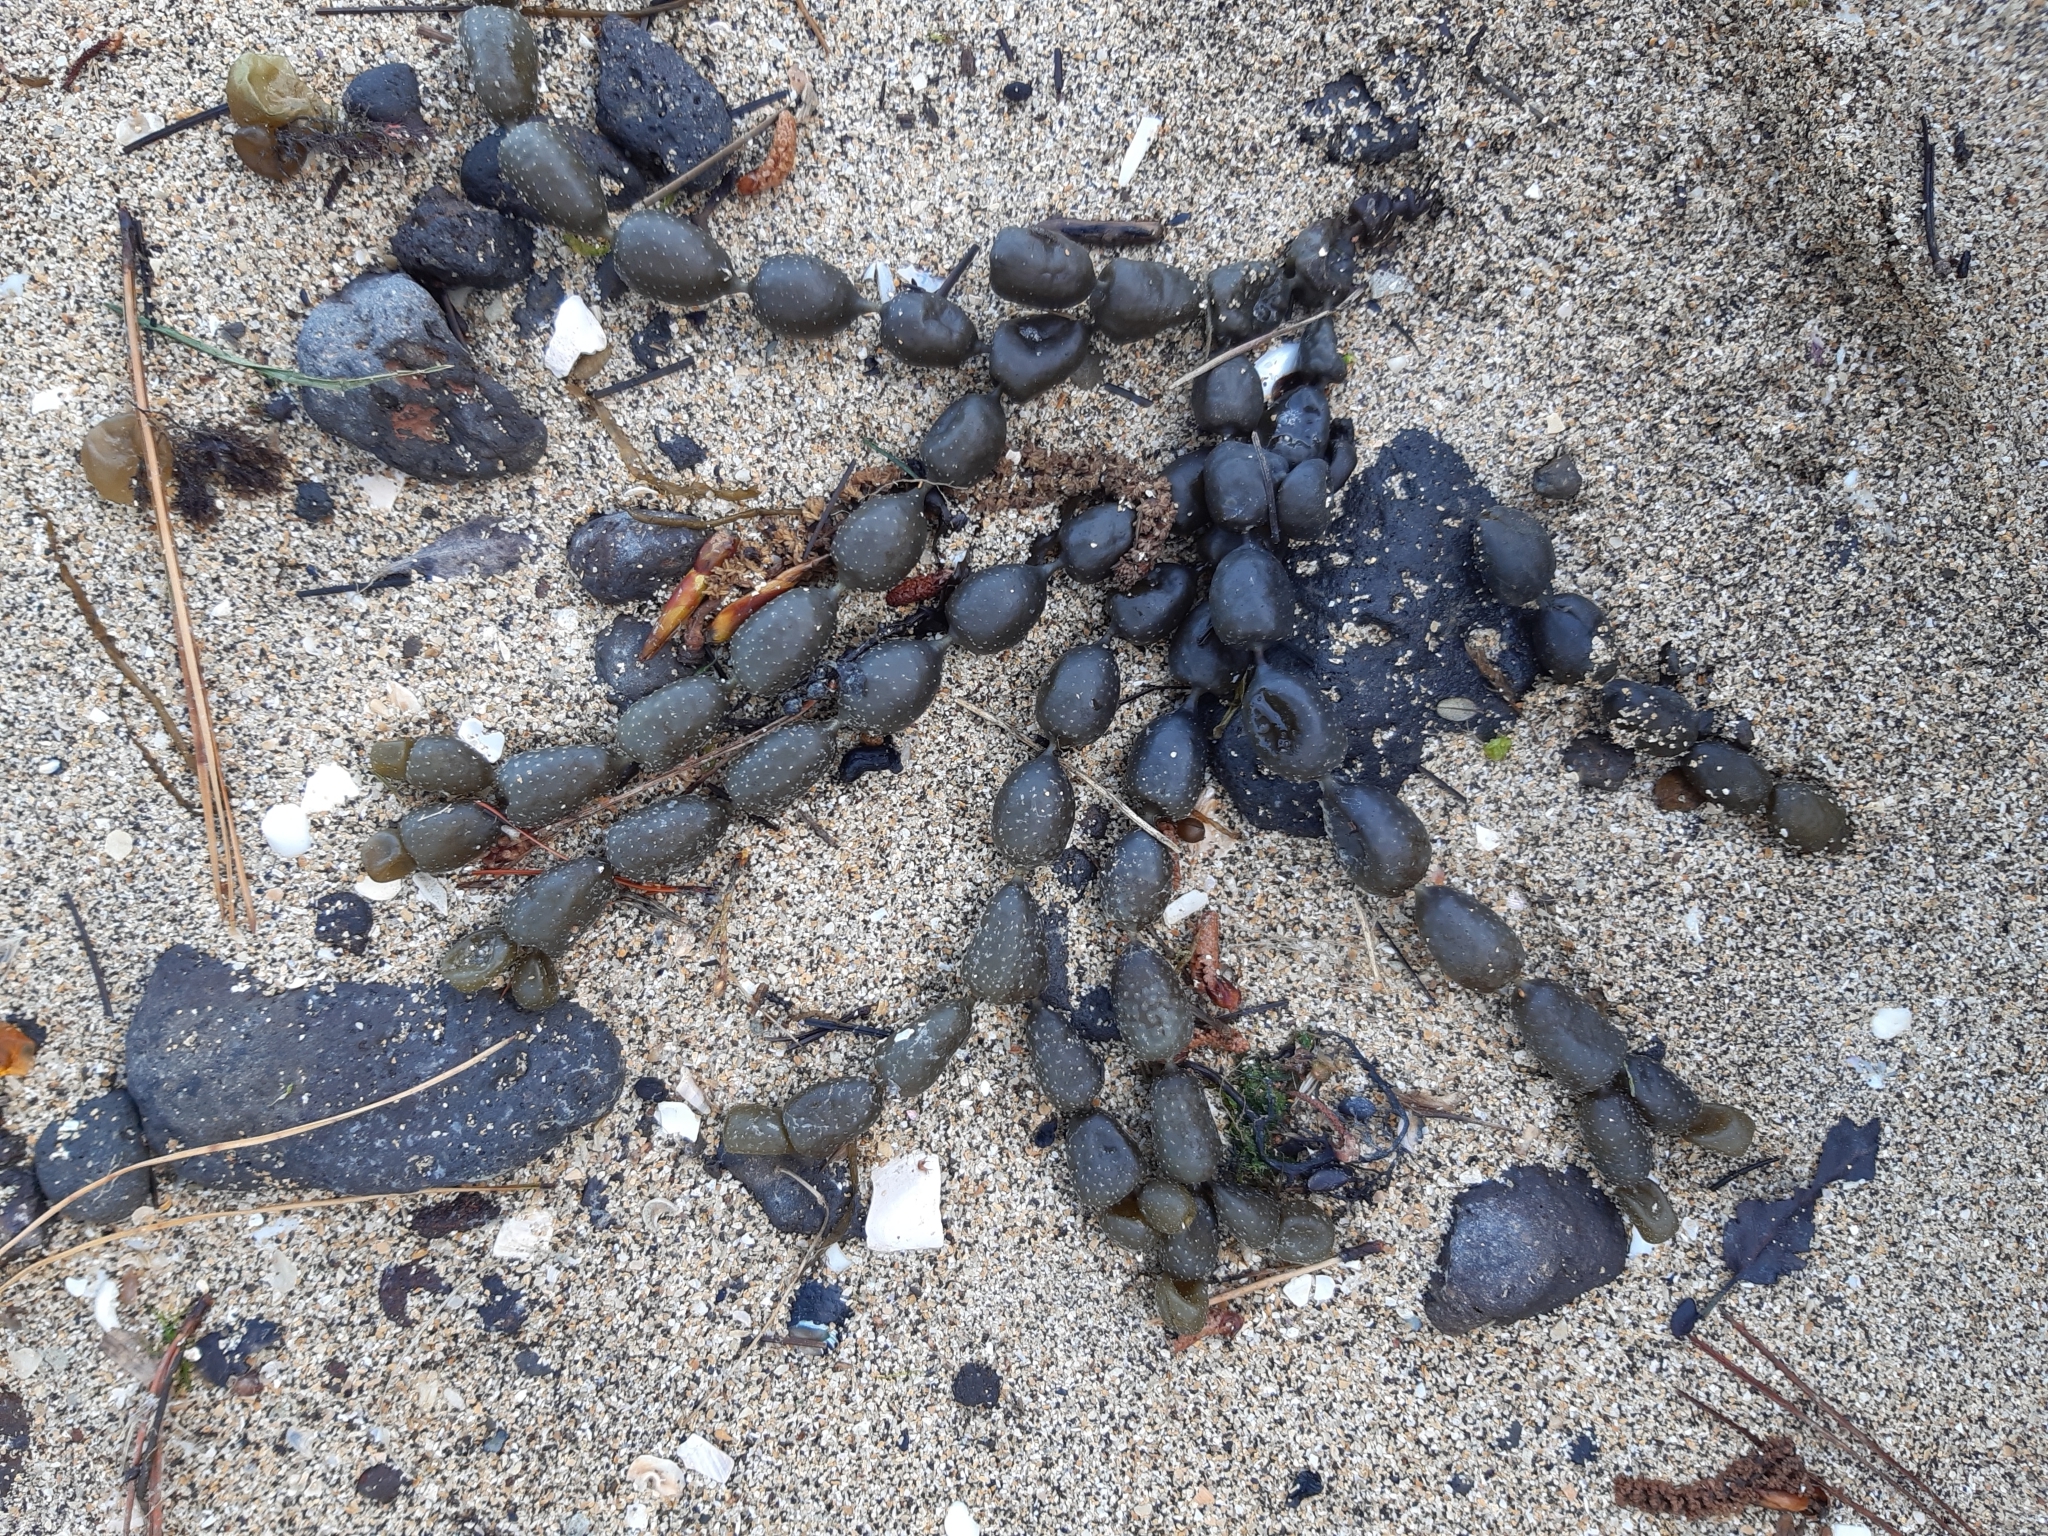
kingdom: Chromista
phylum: Ochrophyta
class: Phaeophyceae
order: Fucales
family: Hormosiraceae
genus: Hormosira
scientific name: Hormosira banksii
